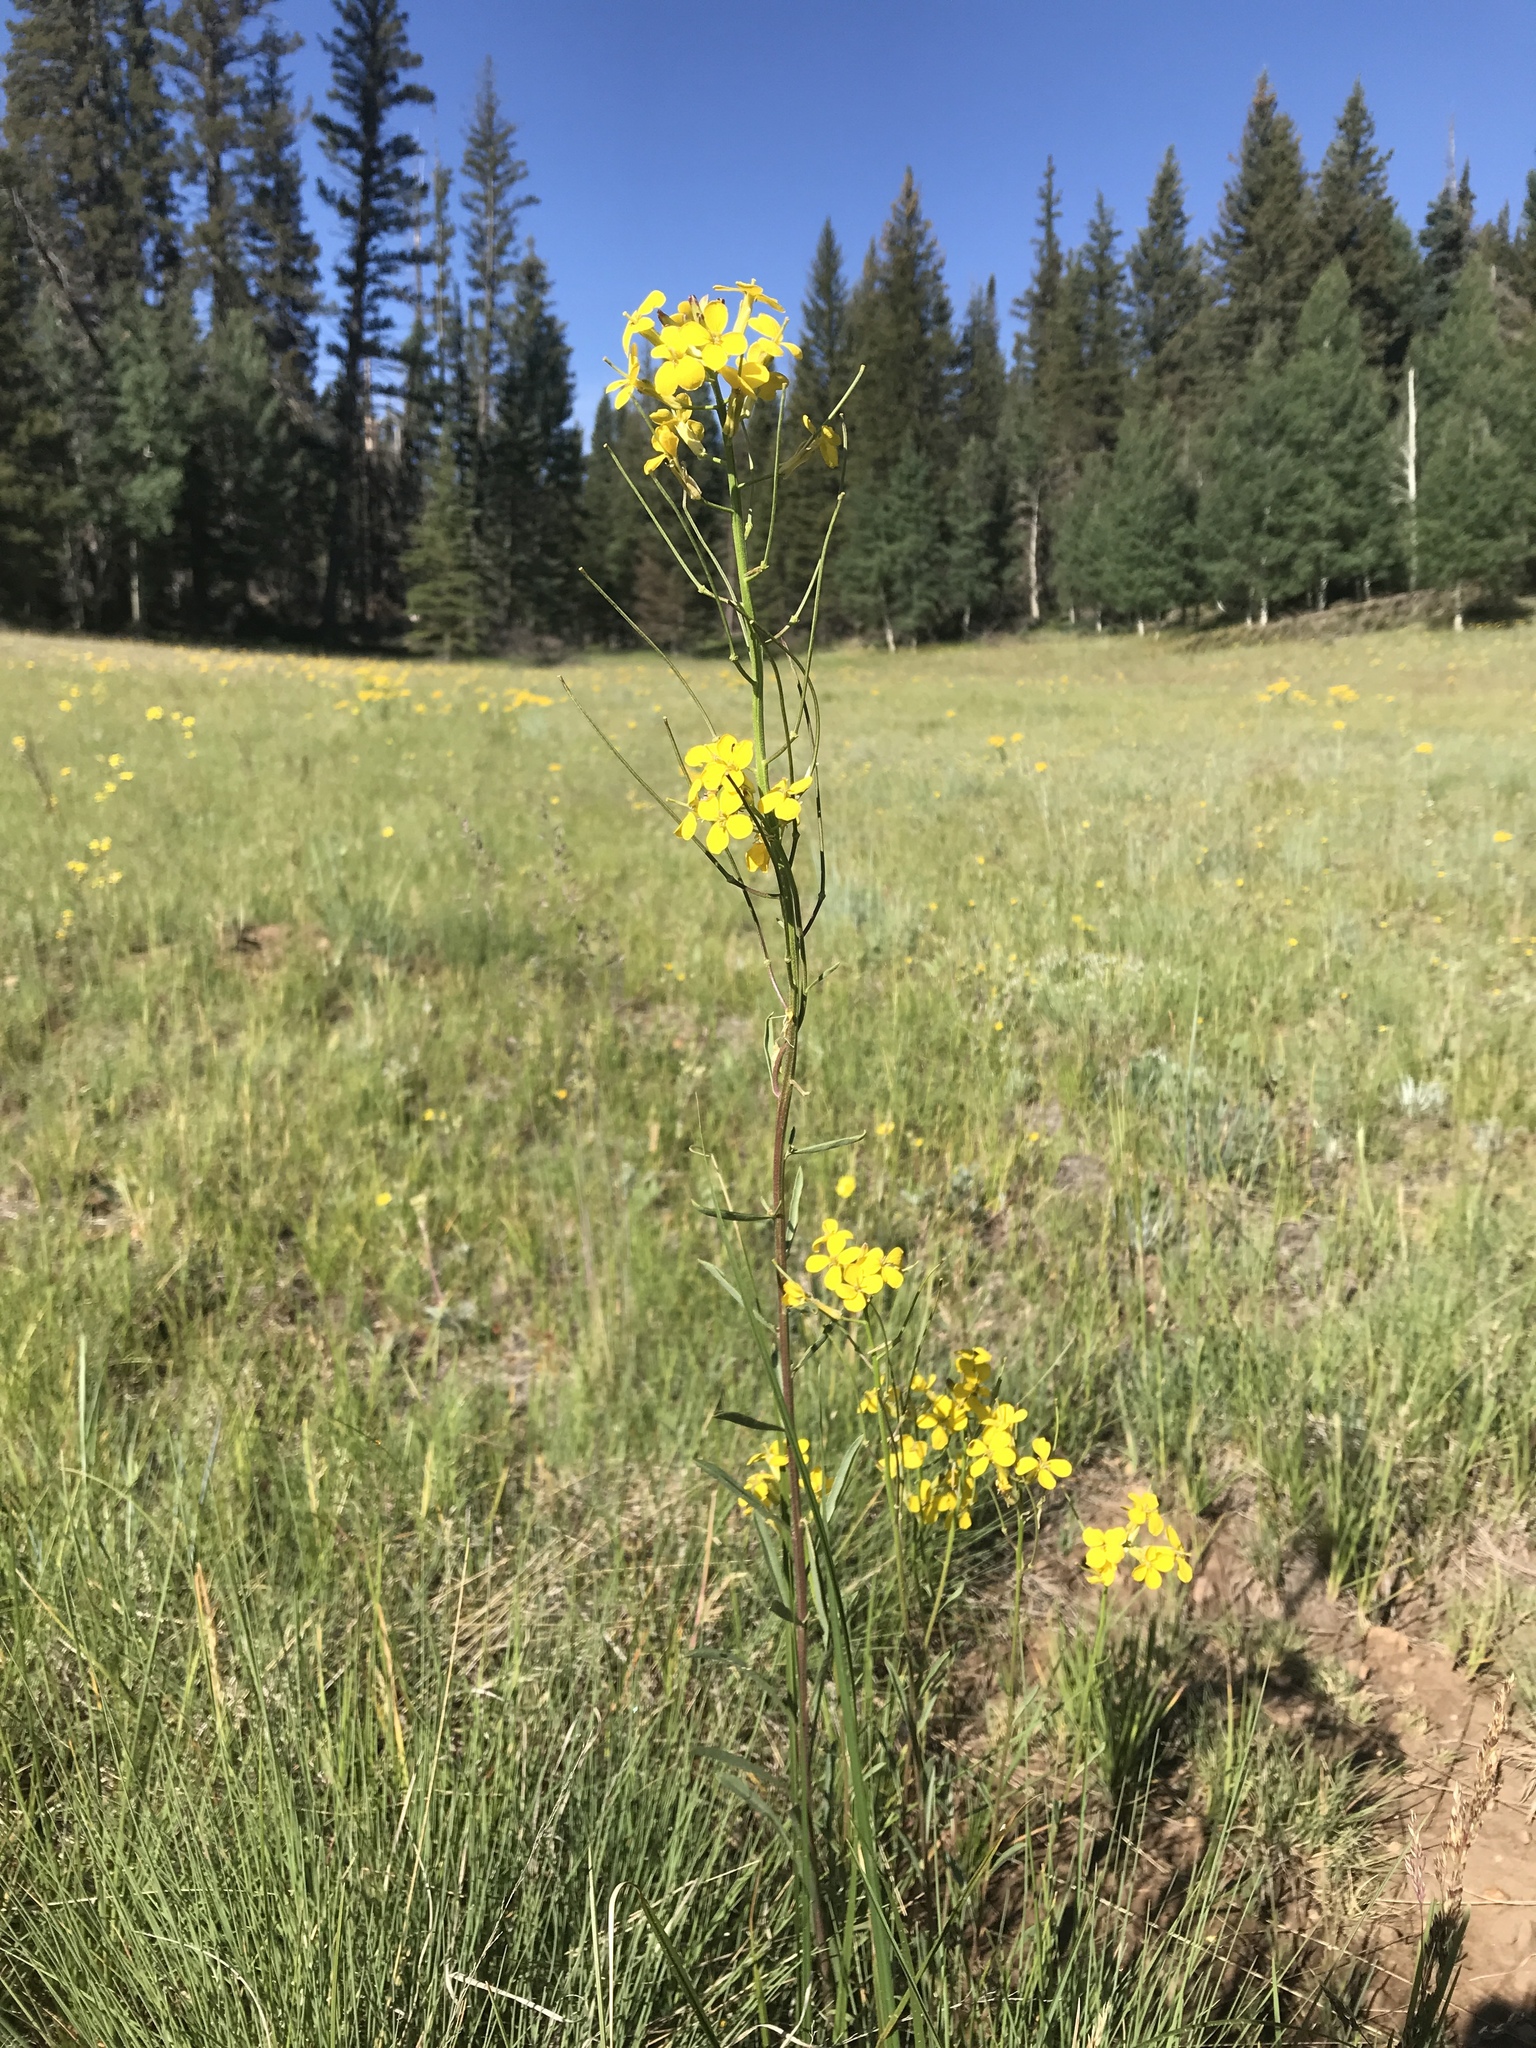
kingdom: Plantae
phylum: Tracheophyta
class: Magnoliopsida
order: Brassicales
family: Brassicaceae
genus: Erysimum
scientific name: Erysimum capitatum
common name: Western wallflower
